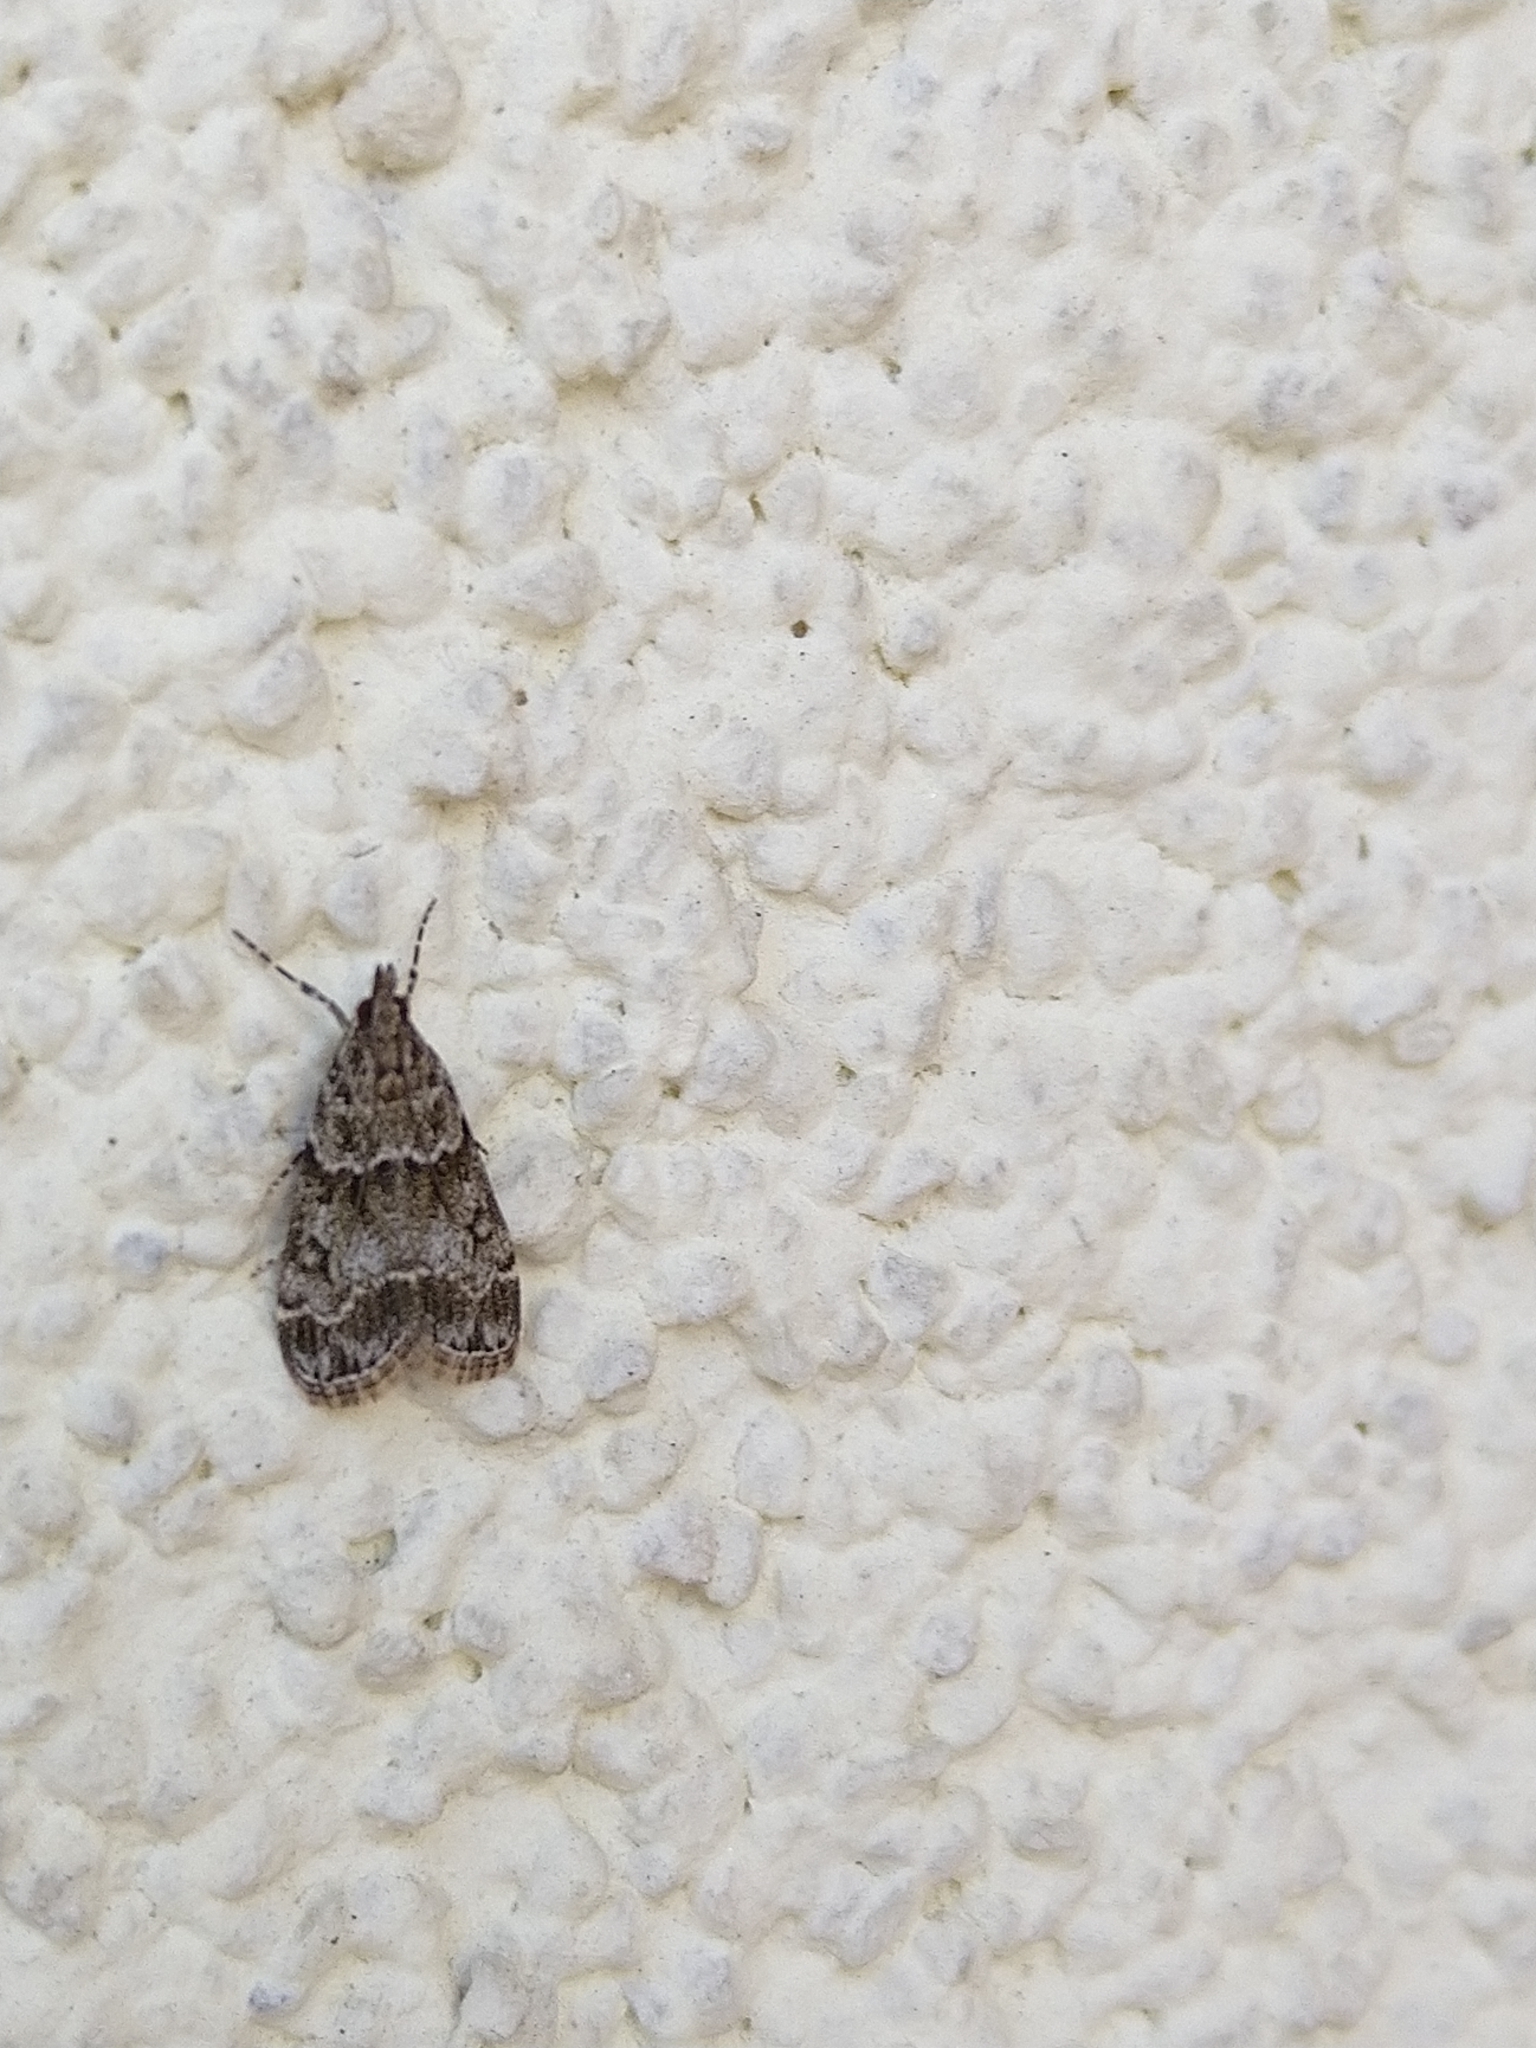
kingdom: Animalia
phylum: Arthropoda
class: Insecta
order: Lepidoptera
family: Crambidae
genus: Eudonia
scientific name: Eudonia lacustrata
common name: Little grey
